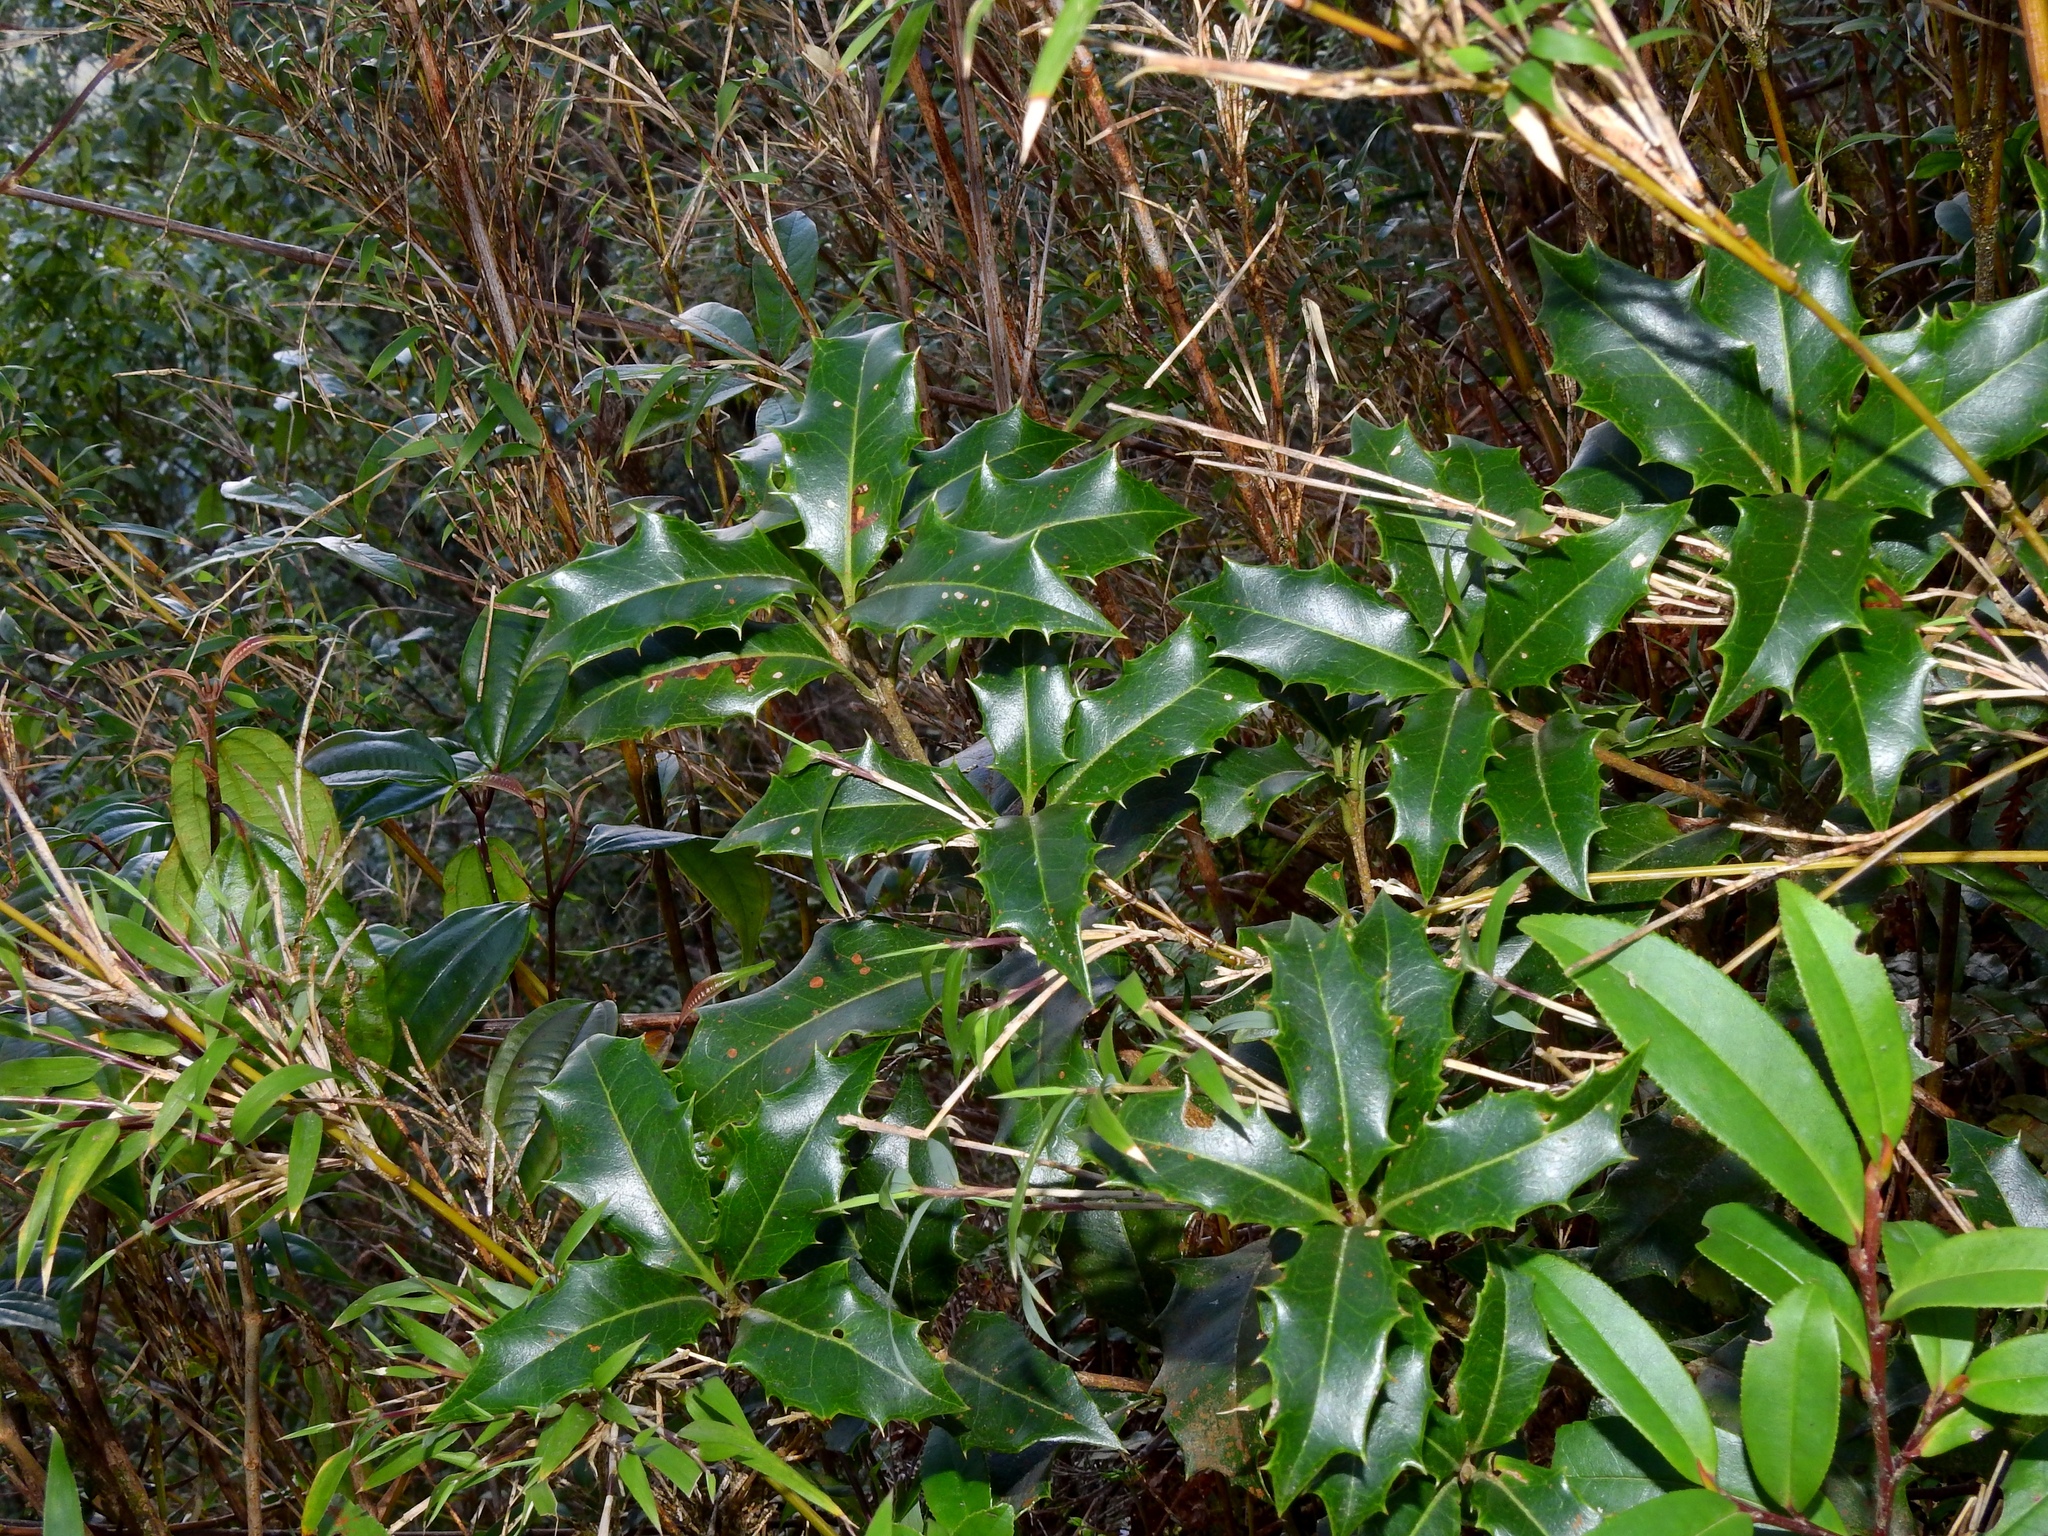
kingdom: Plantae
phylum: Tracheophyta
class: Magnoliopsida
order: Lamiales
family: Oleaceae
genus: Osmanthus
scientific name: Osmanthus heterophyllus
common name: Holly osmanthus
